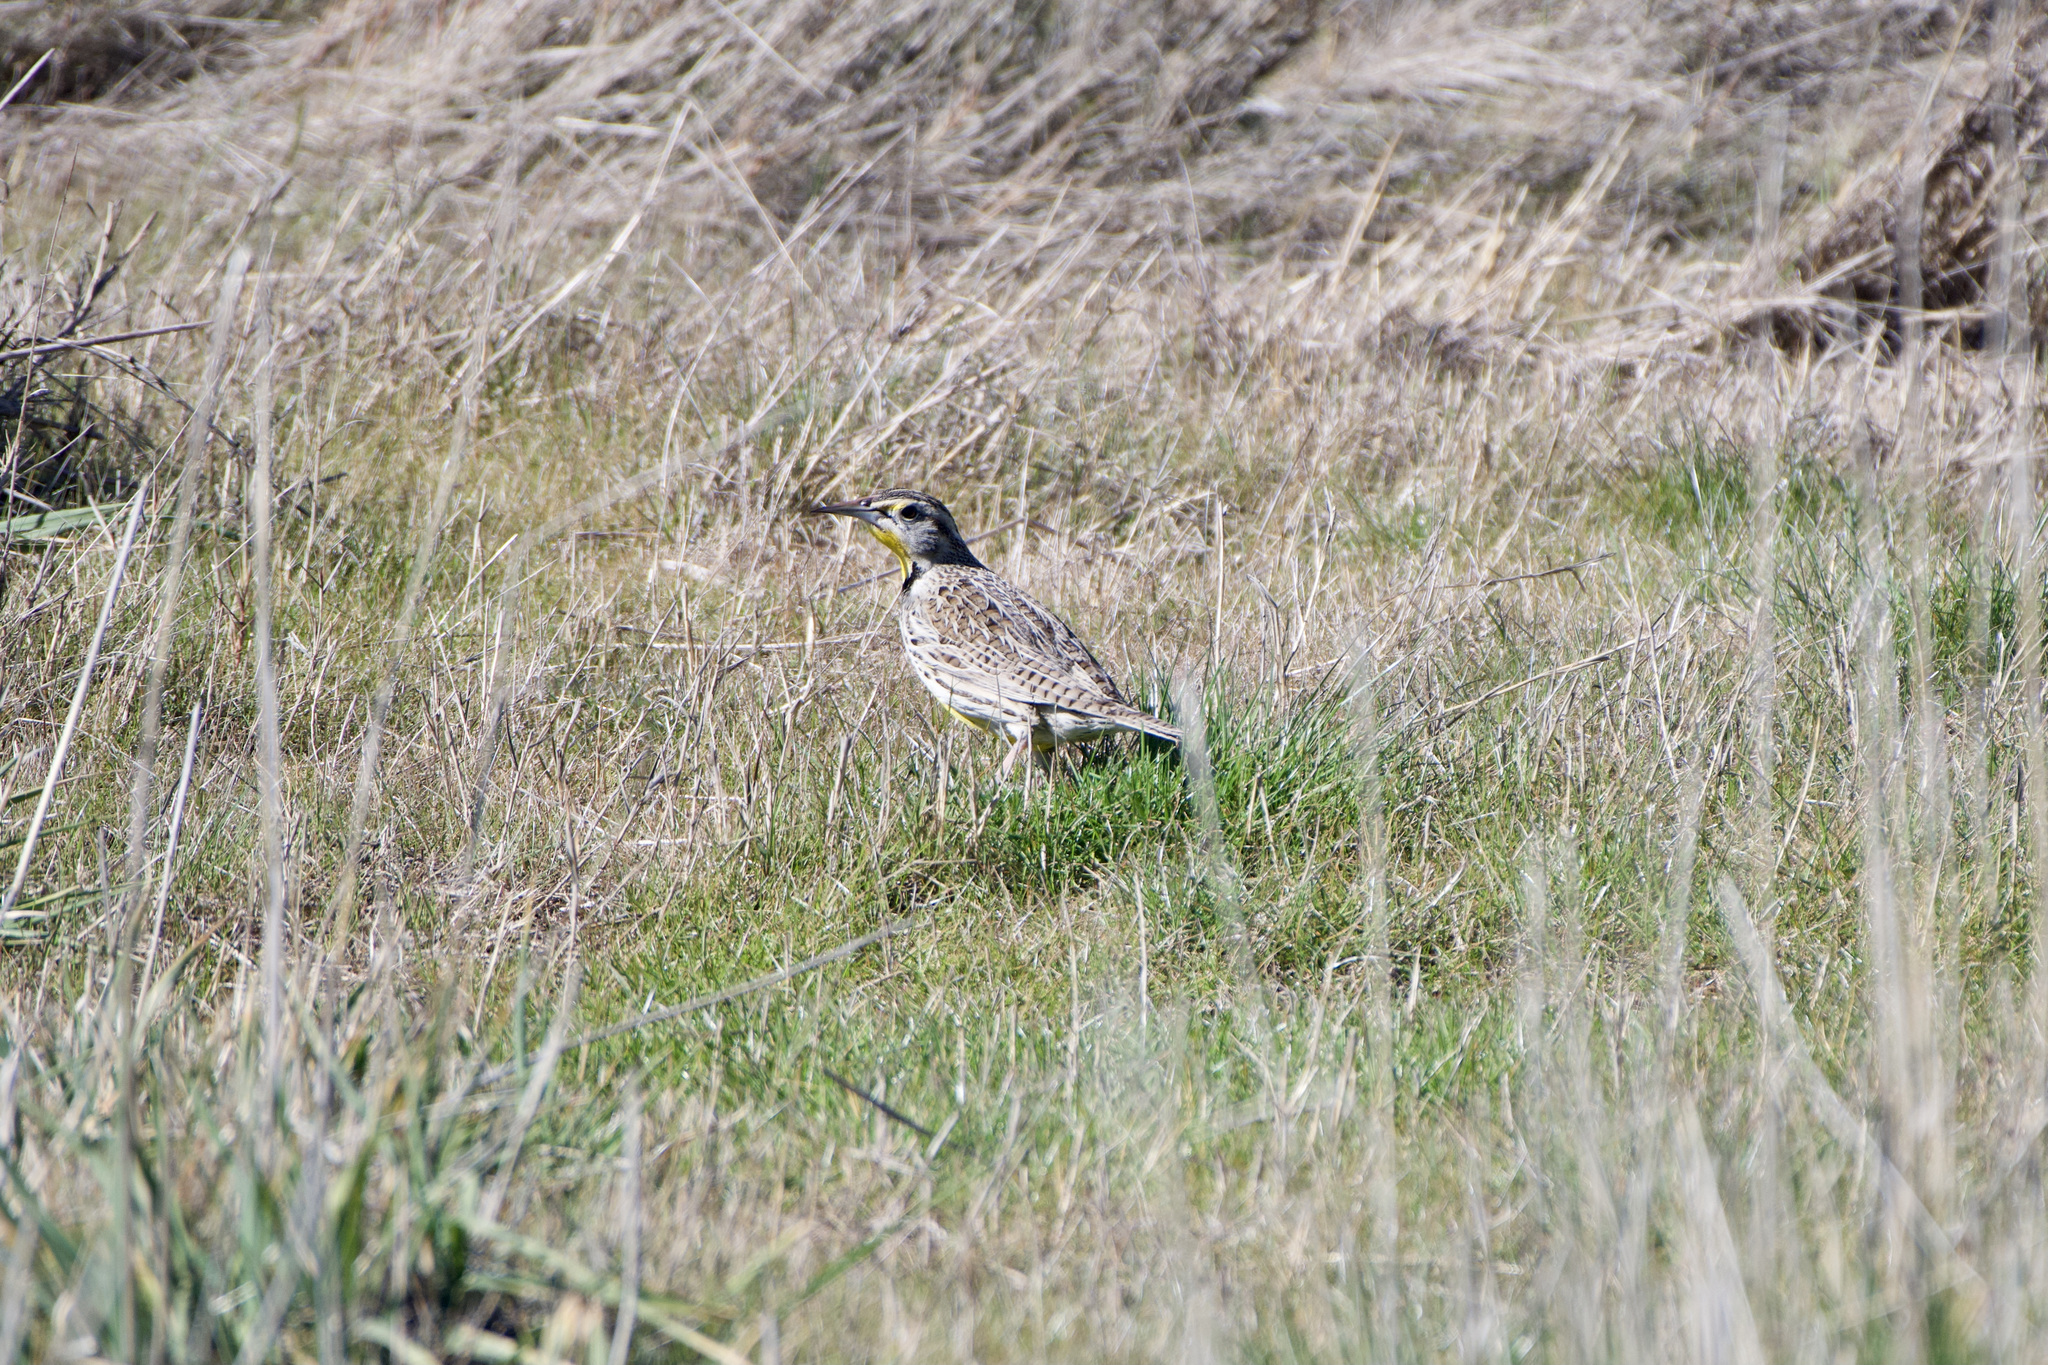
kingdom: Animalia
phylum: Chordata
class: Aves
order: Passeriformes
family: Icteridae
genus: Sturnella
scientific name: Sturnella neglecta
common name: Western meadowlark
